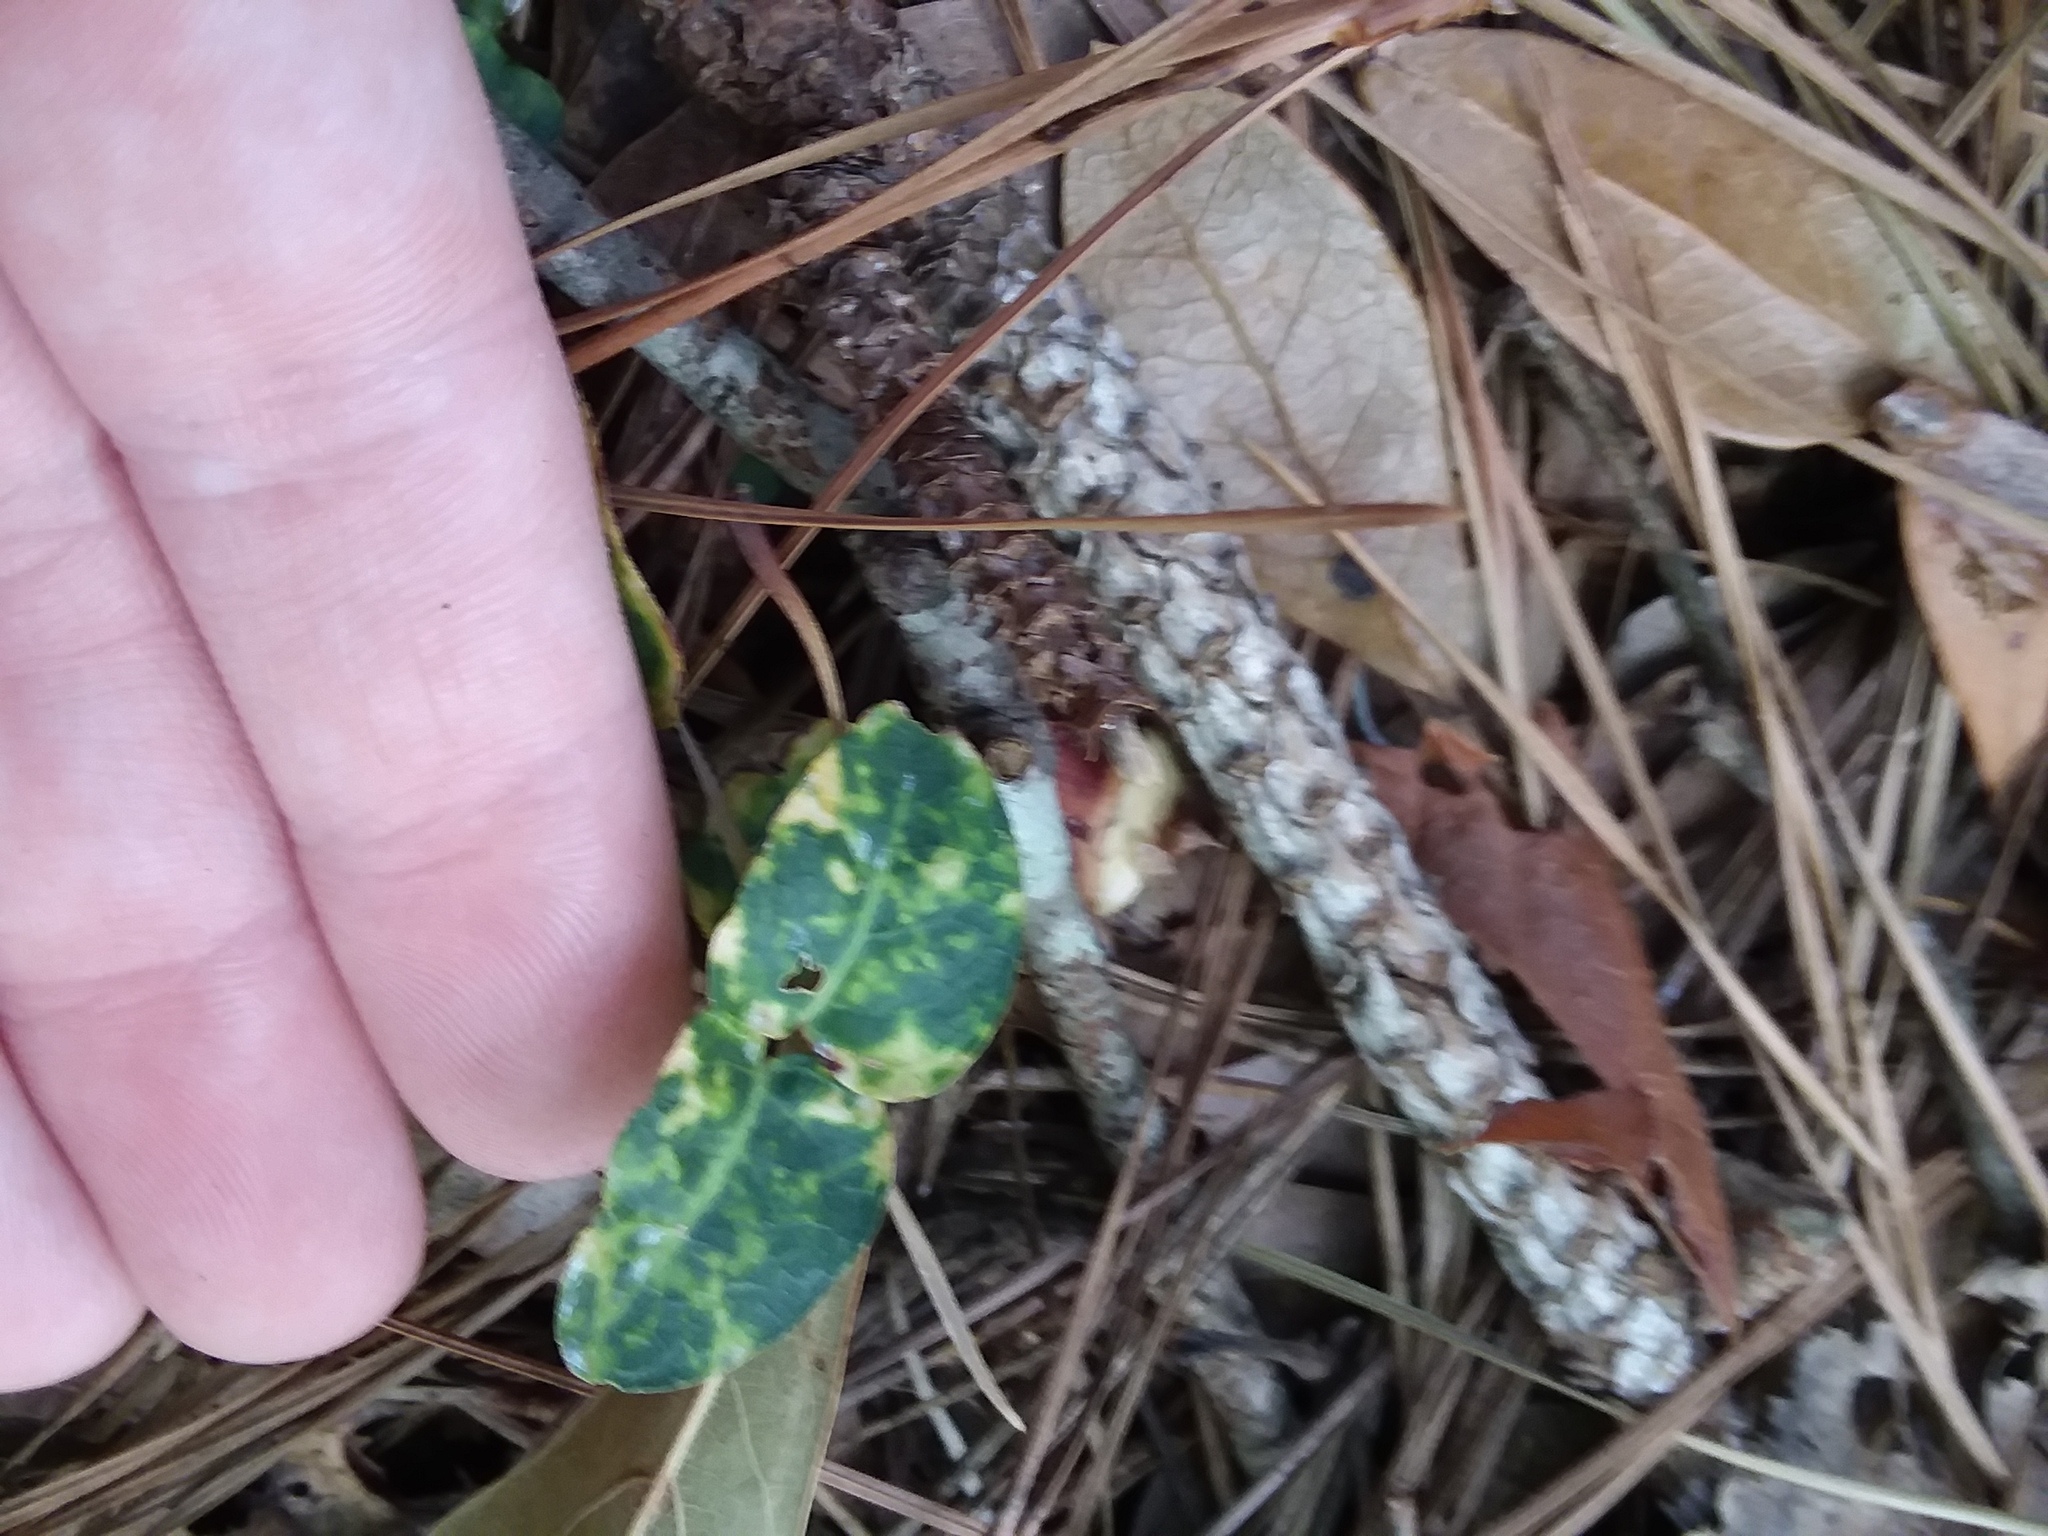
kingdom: Plantae
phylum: Tracheophyta
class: Magnoliopsida
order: Gentianales
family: Rubiaceae
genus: Mitchella
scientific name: Mitchella repens
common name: Partridge-berry
